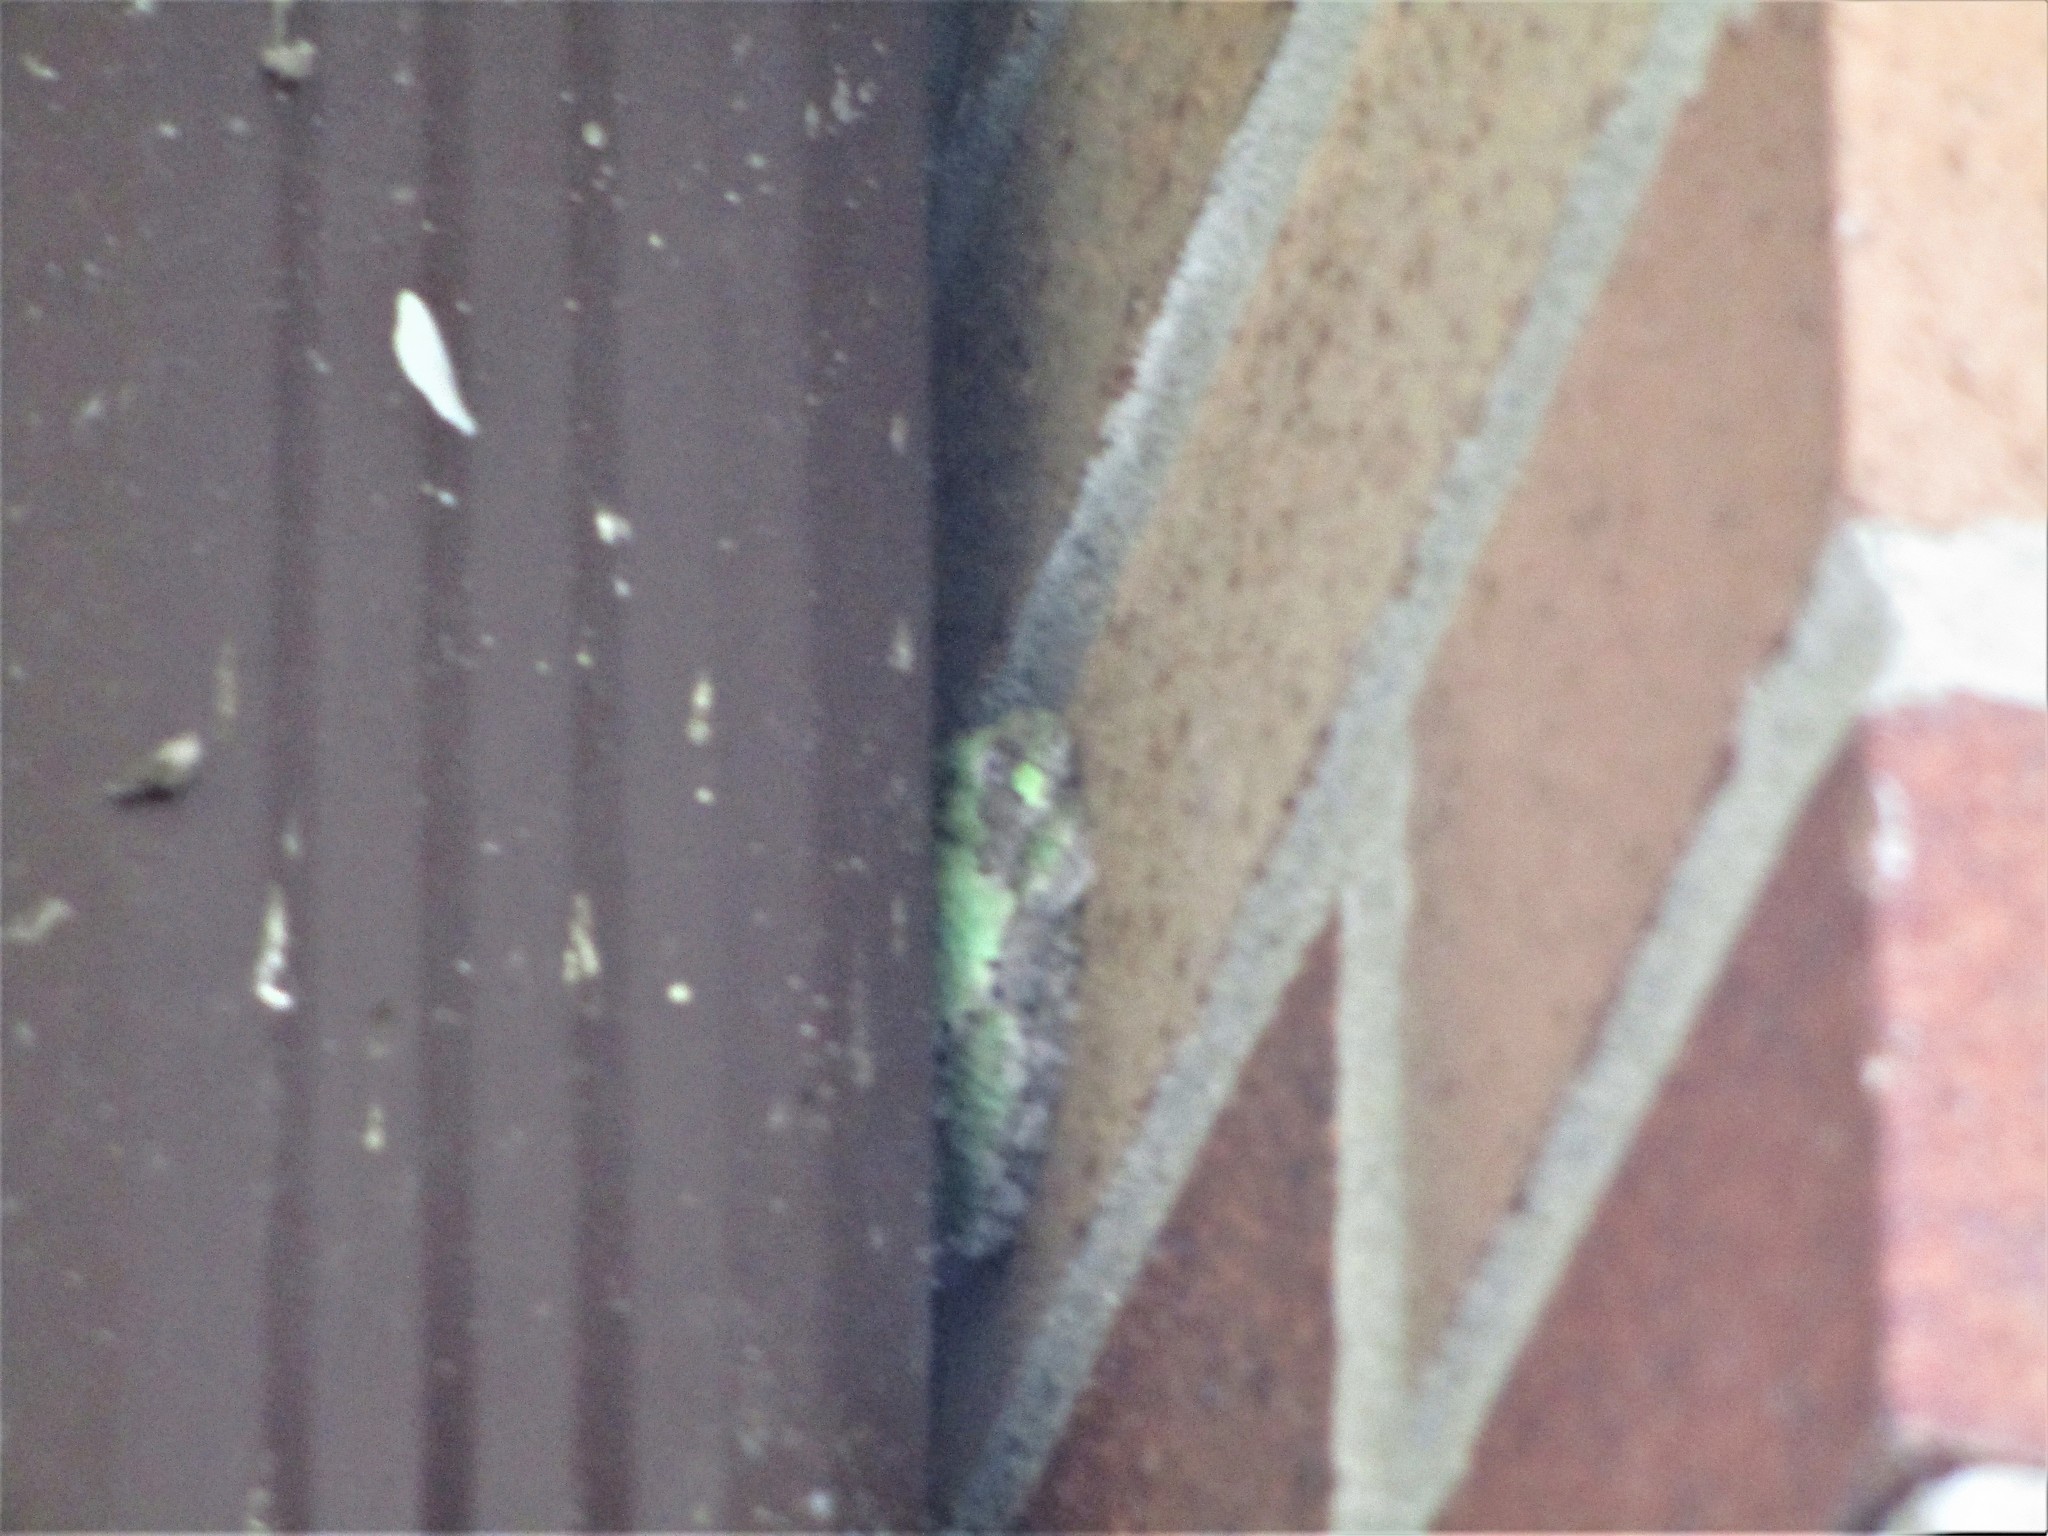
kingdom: Animalia
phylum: Chordata
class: Amphibia
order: Anura
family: Hylidae
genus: Hyla
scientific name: Hyla
